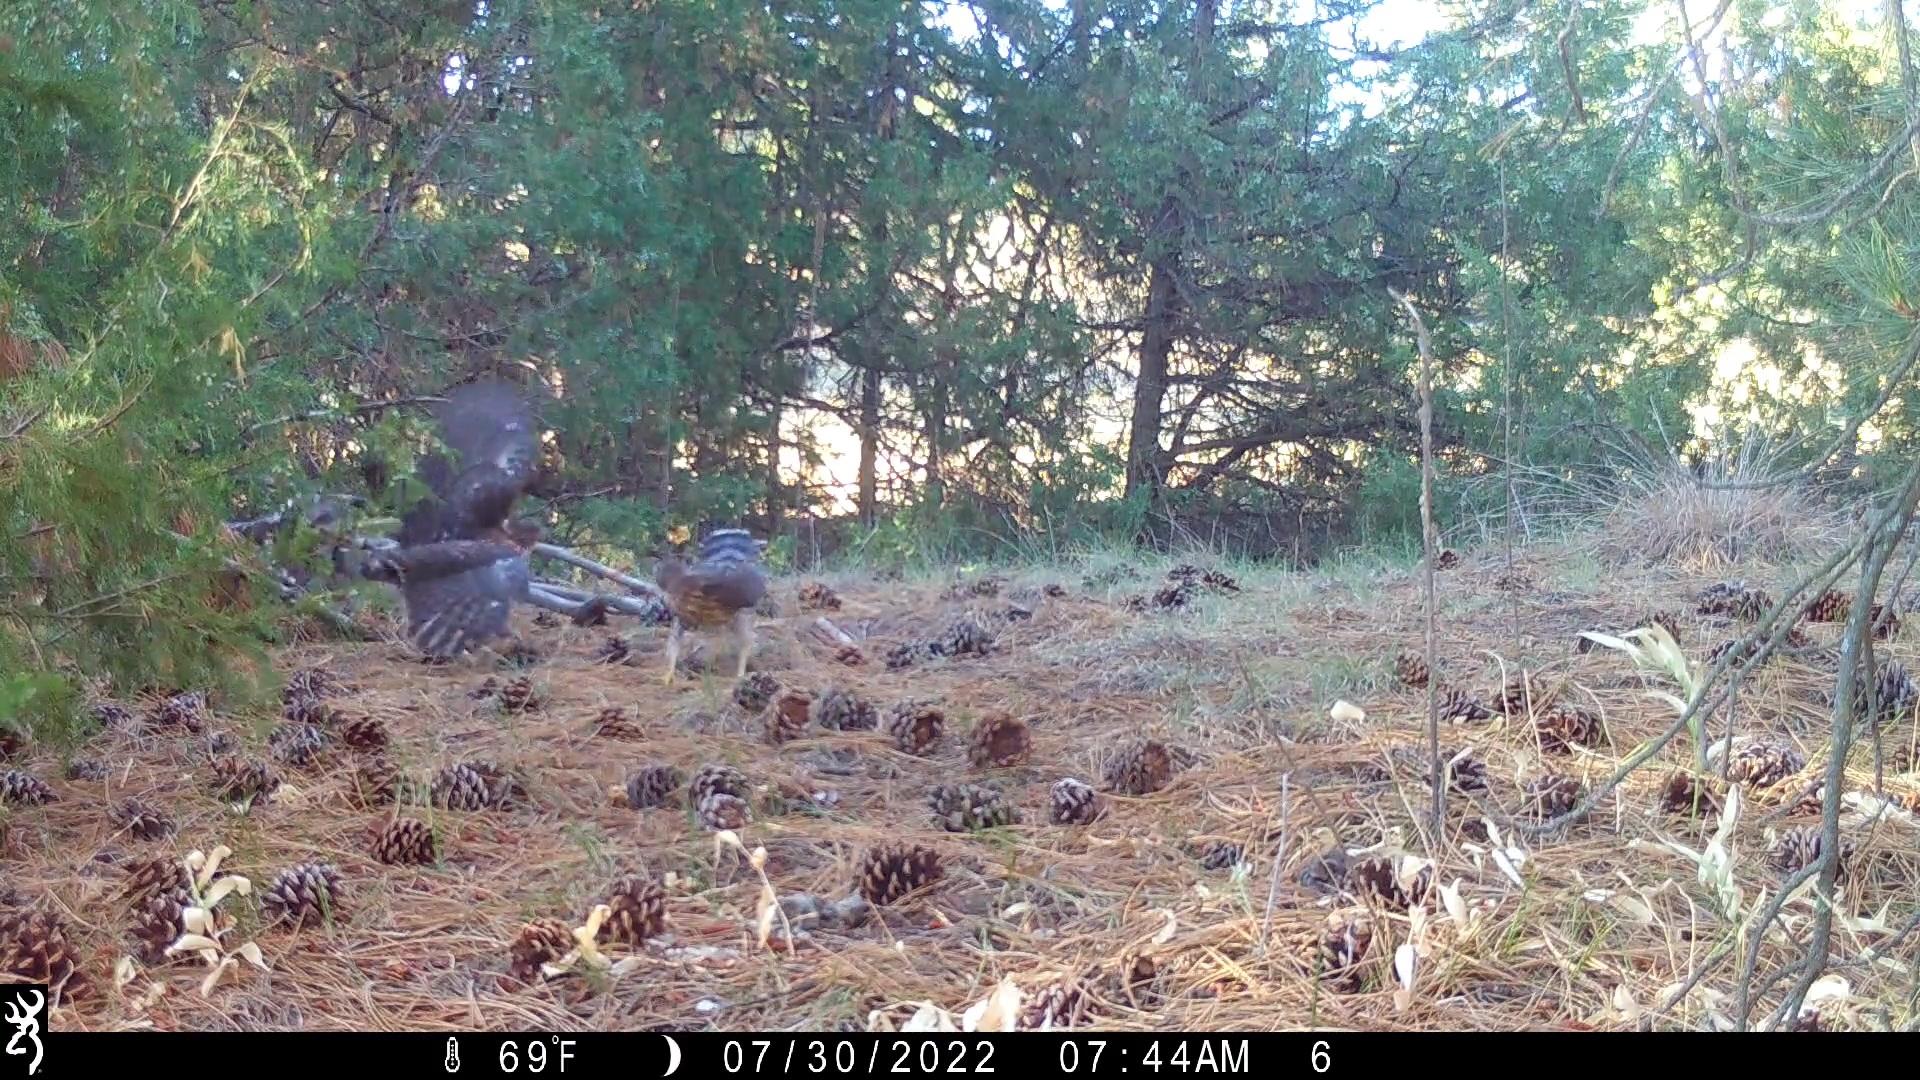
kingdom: Animalia
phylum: Chordata
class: Aves
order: Accipitriformes
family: Accipitridae
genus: Accipiter
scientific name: Accipiter cooperii
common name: Cooper's hawk
